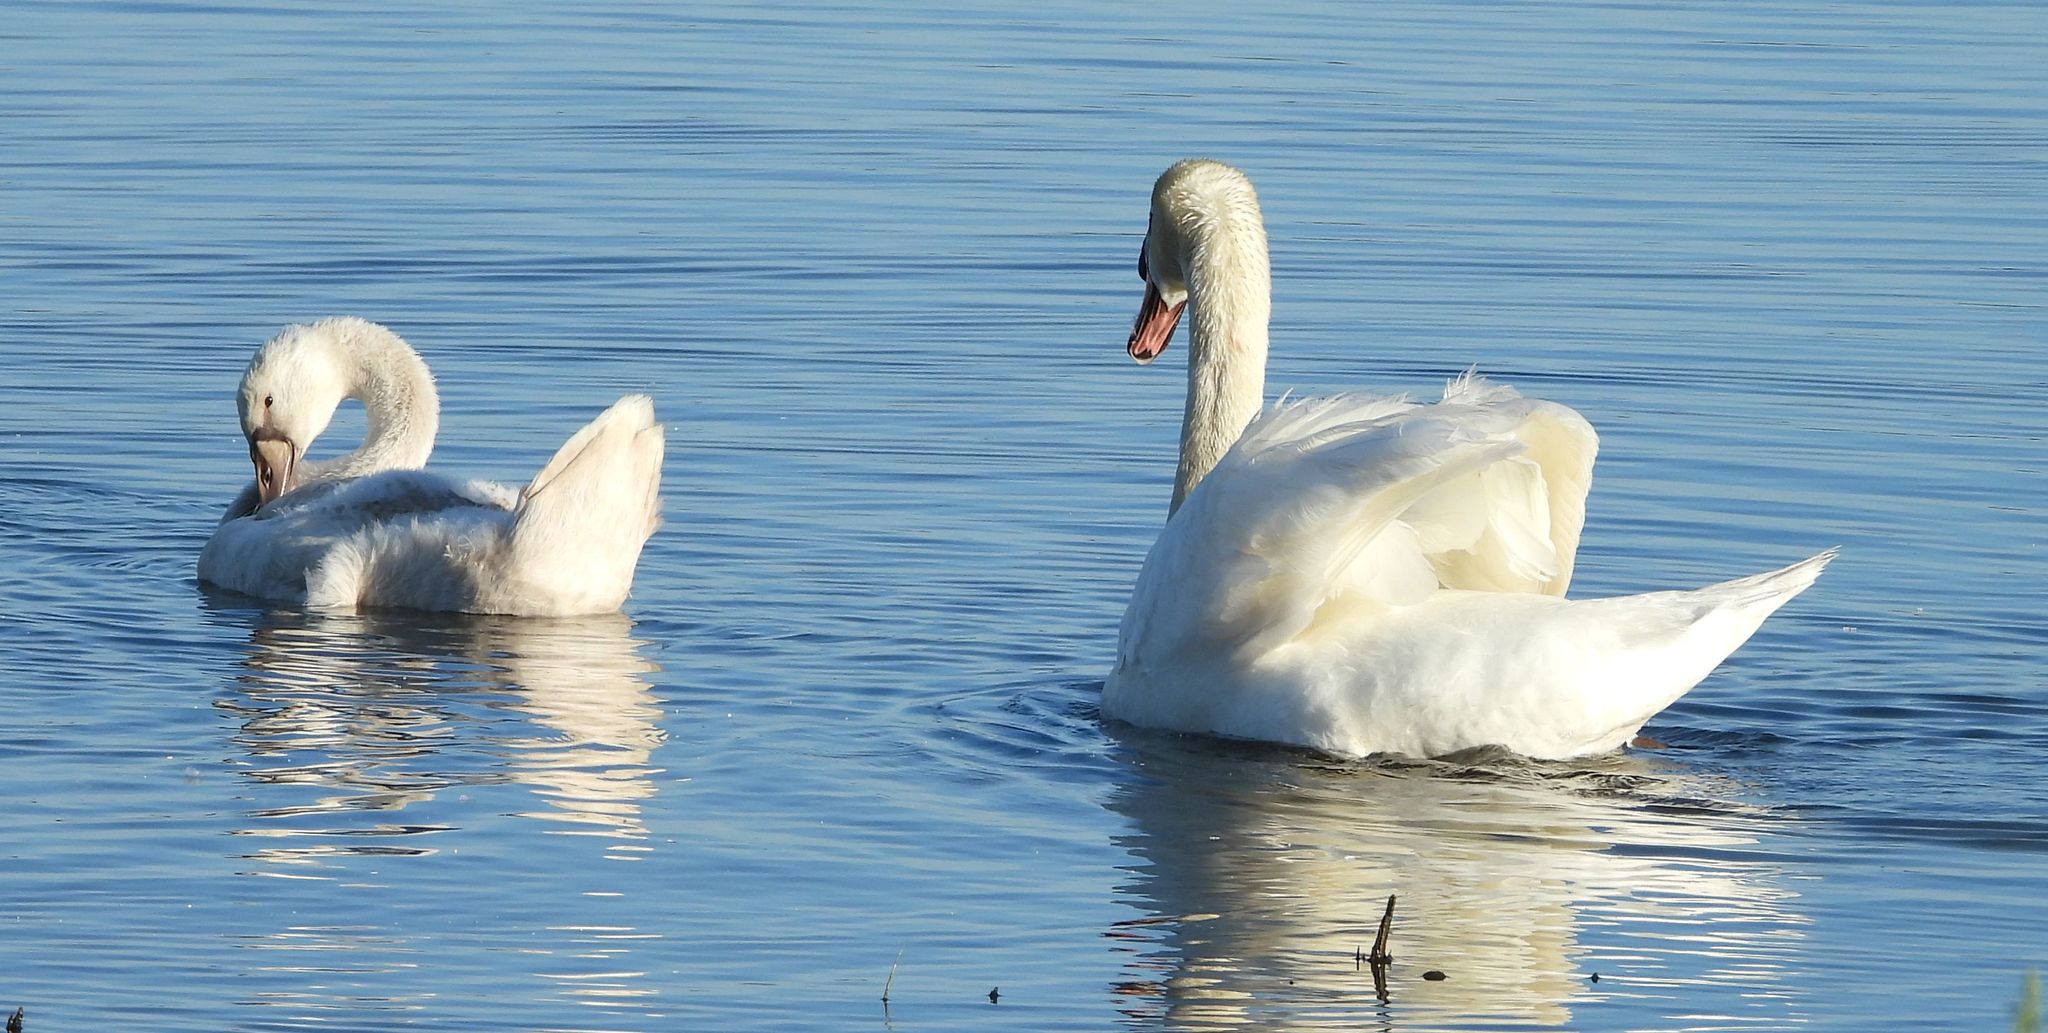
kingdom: Animalia
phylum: Chordata
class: Aves
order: Anseriformes
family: Anatidae
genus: Cygnus
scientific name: Cygnus olor
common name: Mute swan
